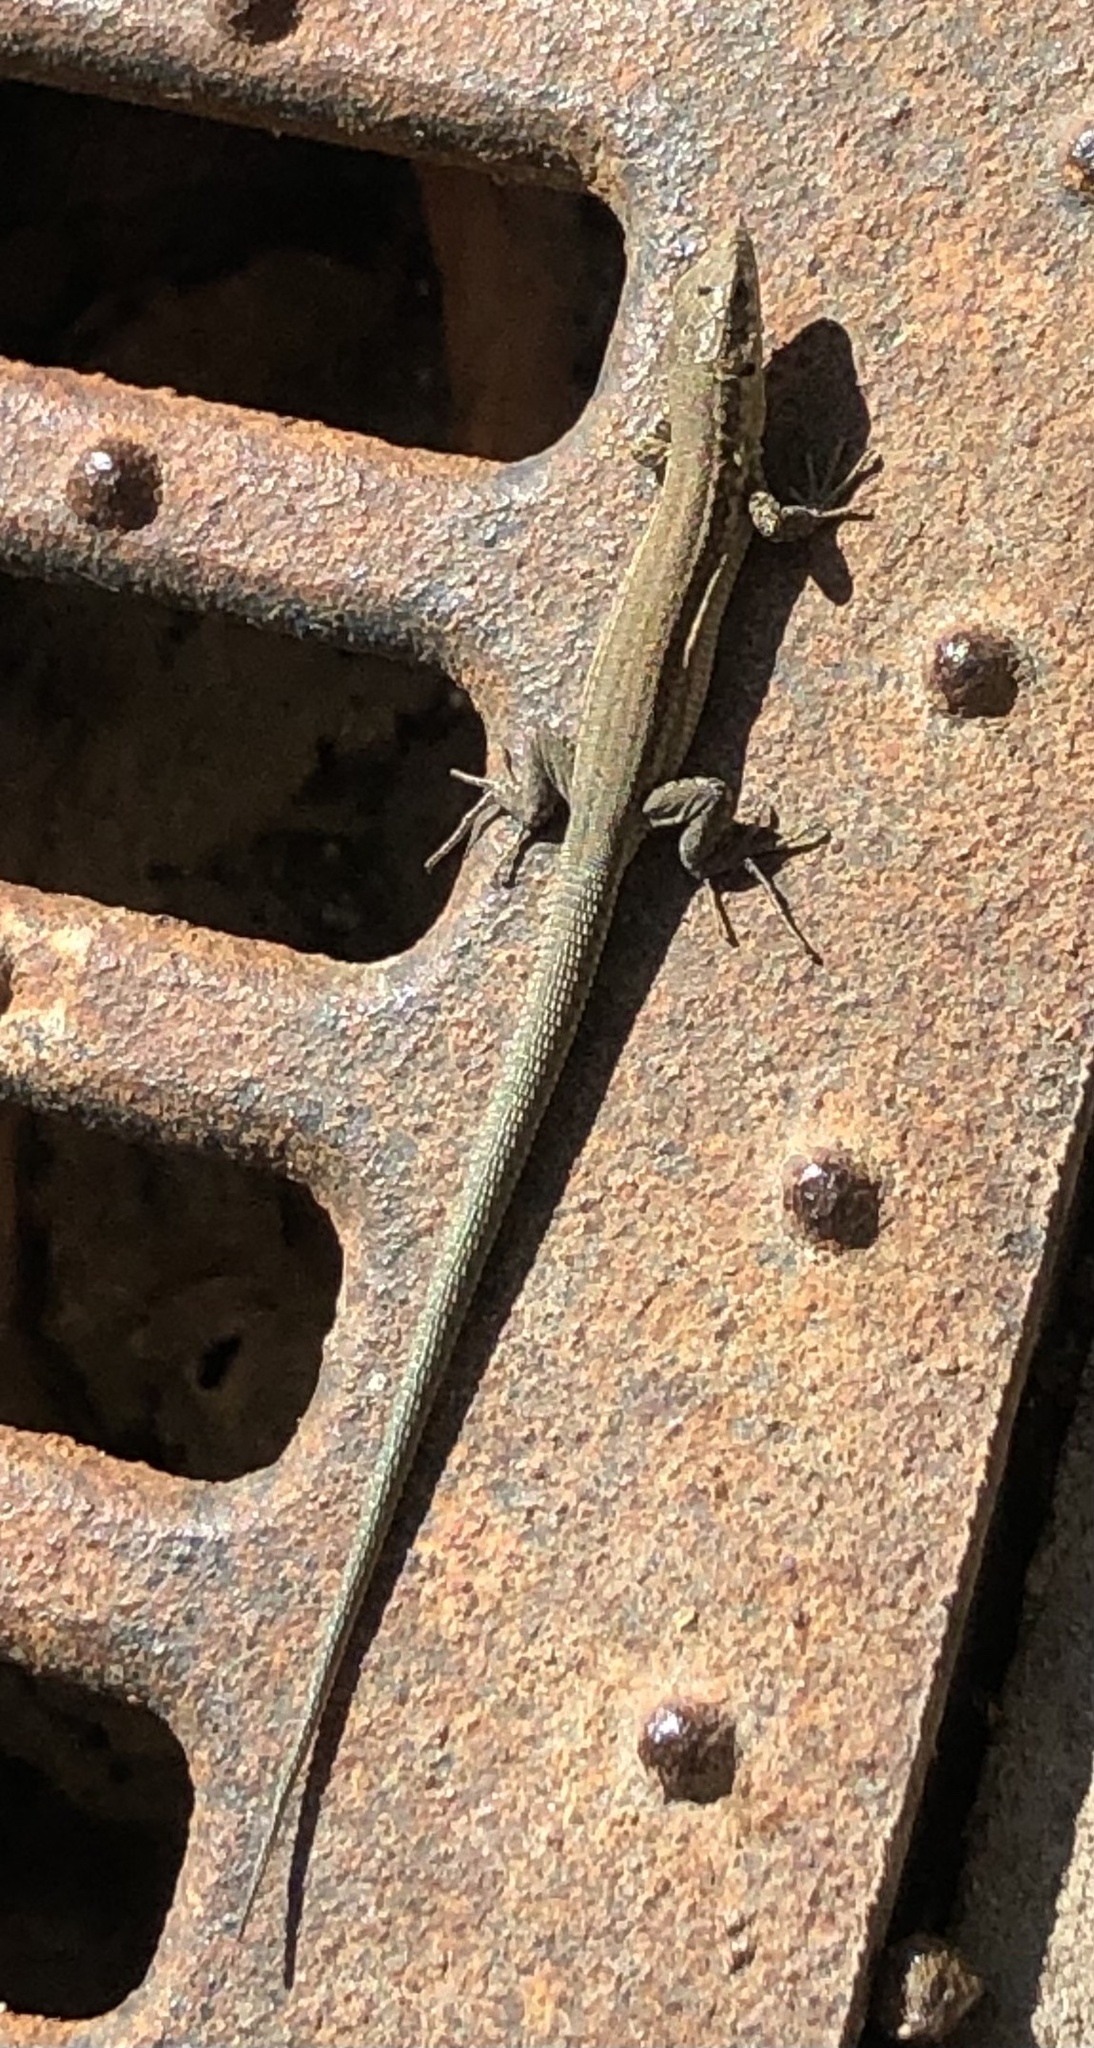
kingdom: Animalia
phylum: Chordata
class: Squamata
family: Lacertidae
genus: Podarcis
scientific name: Podarcis liolepis
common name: Catalonian wall lizard
